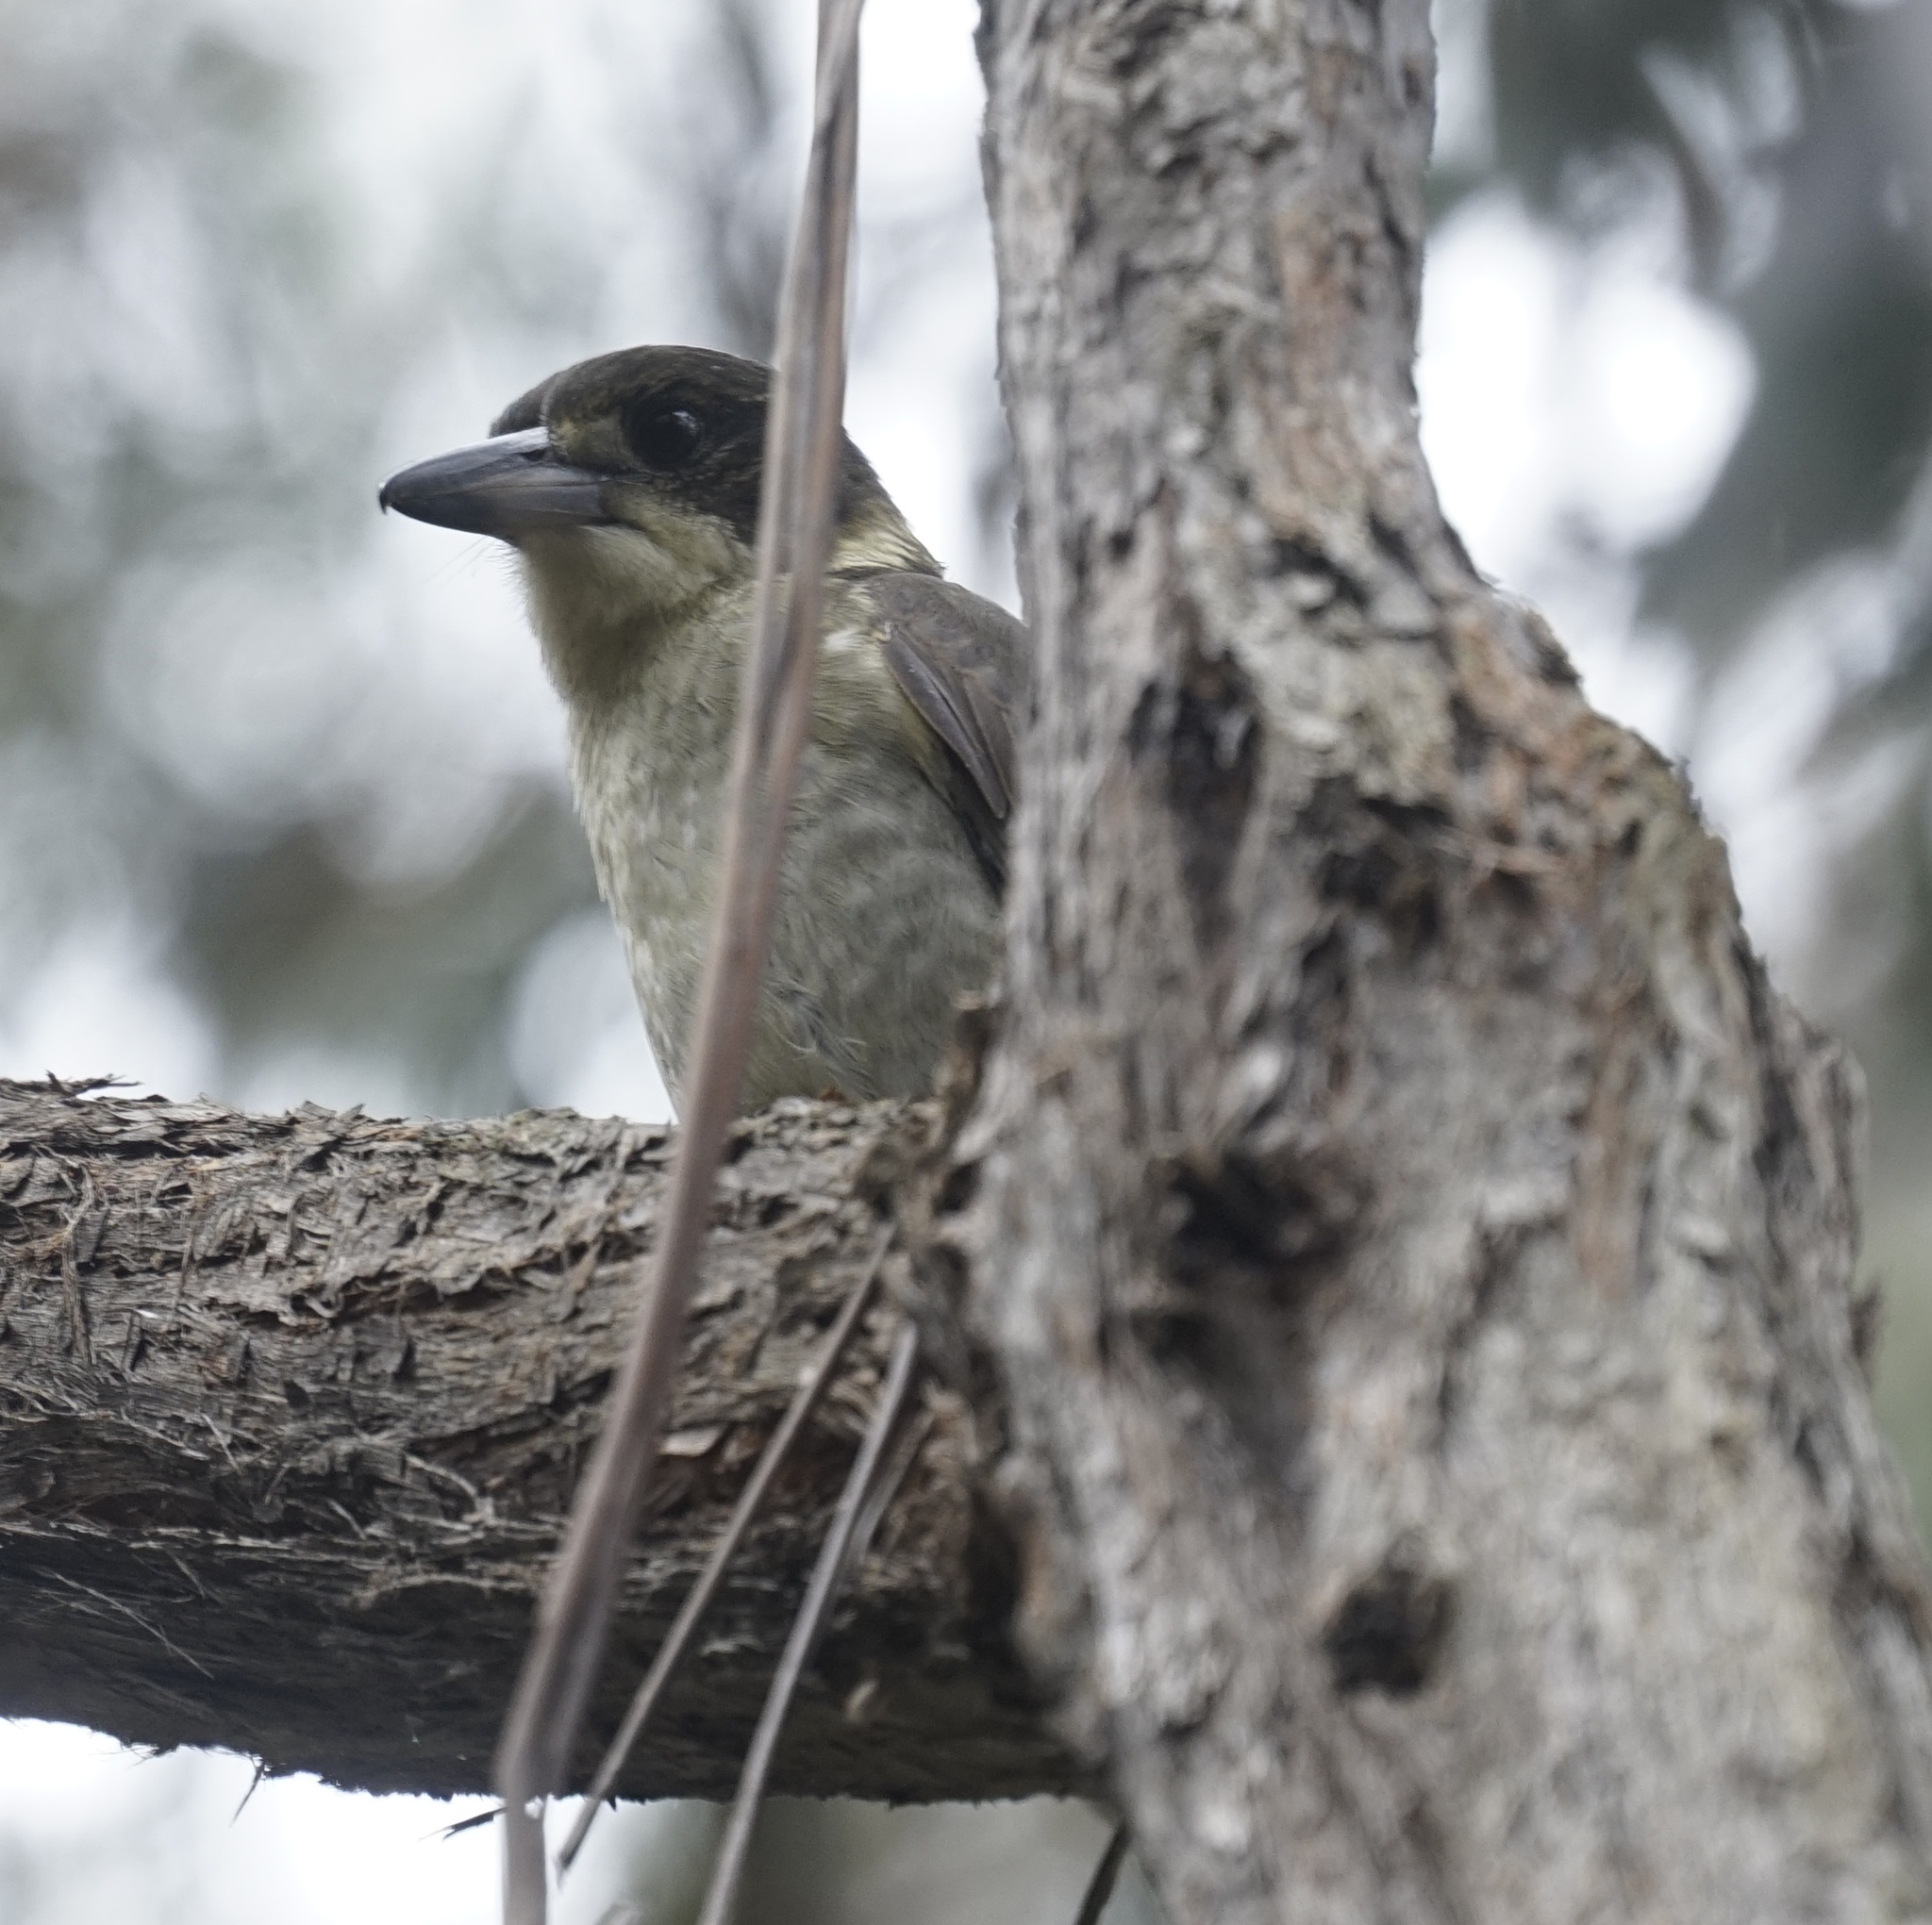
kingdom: Animalia
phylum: Chordata
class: Aves
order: Passeriformes
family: Cracticidae
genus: Cracticus
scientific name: Cracticus torquatus
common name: Grey butcherbird
